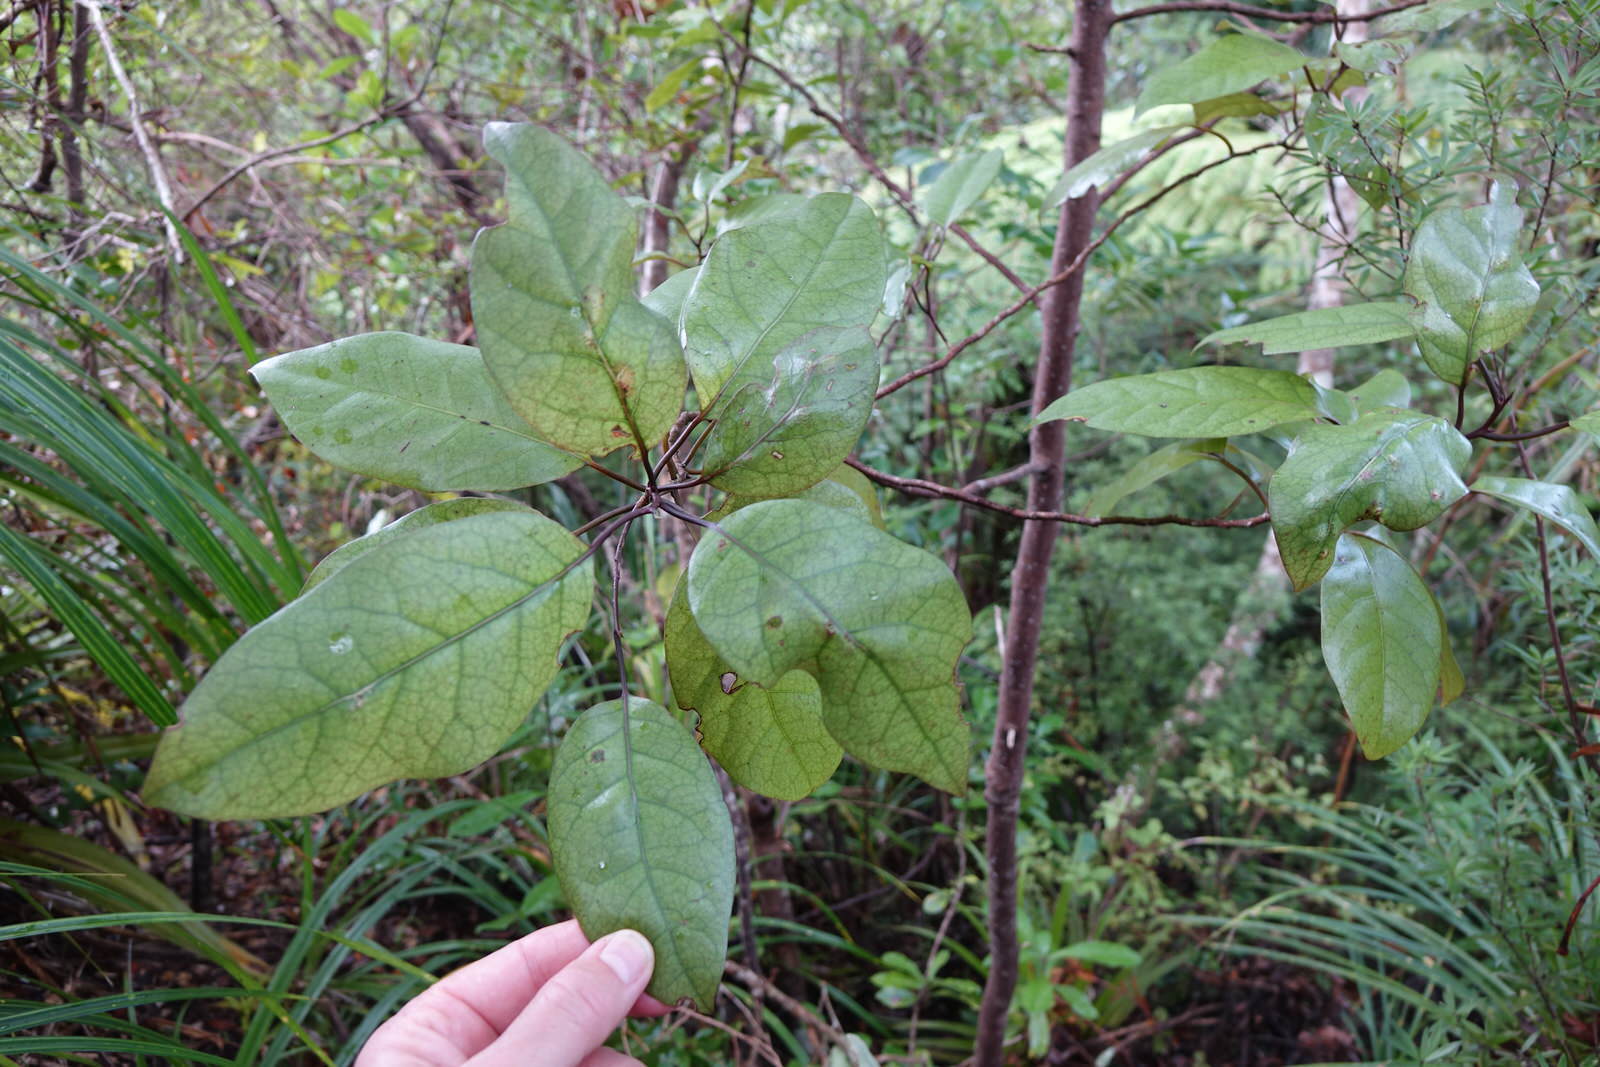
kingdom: Plantae
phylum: Tracheophyta
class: Magnoliopsida
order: Laurales
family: Lauraceae
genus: Litsea
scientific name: Litsea calicaris
